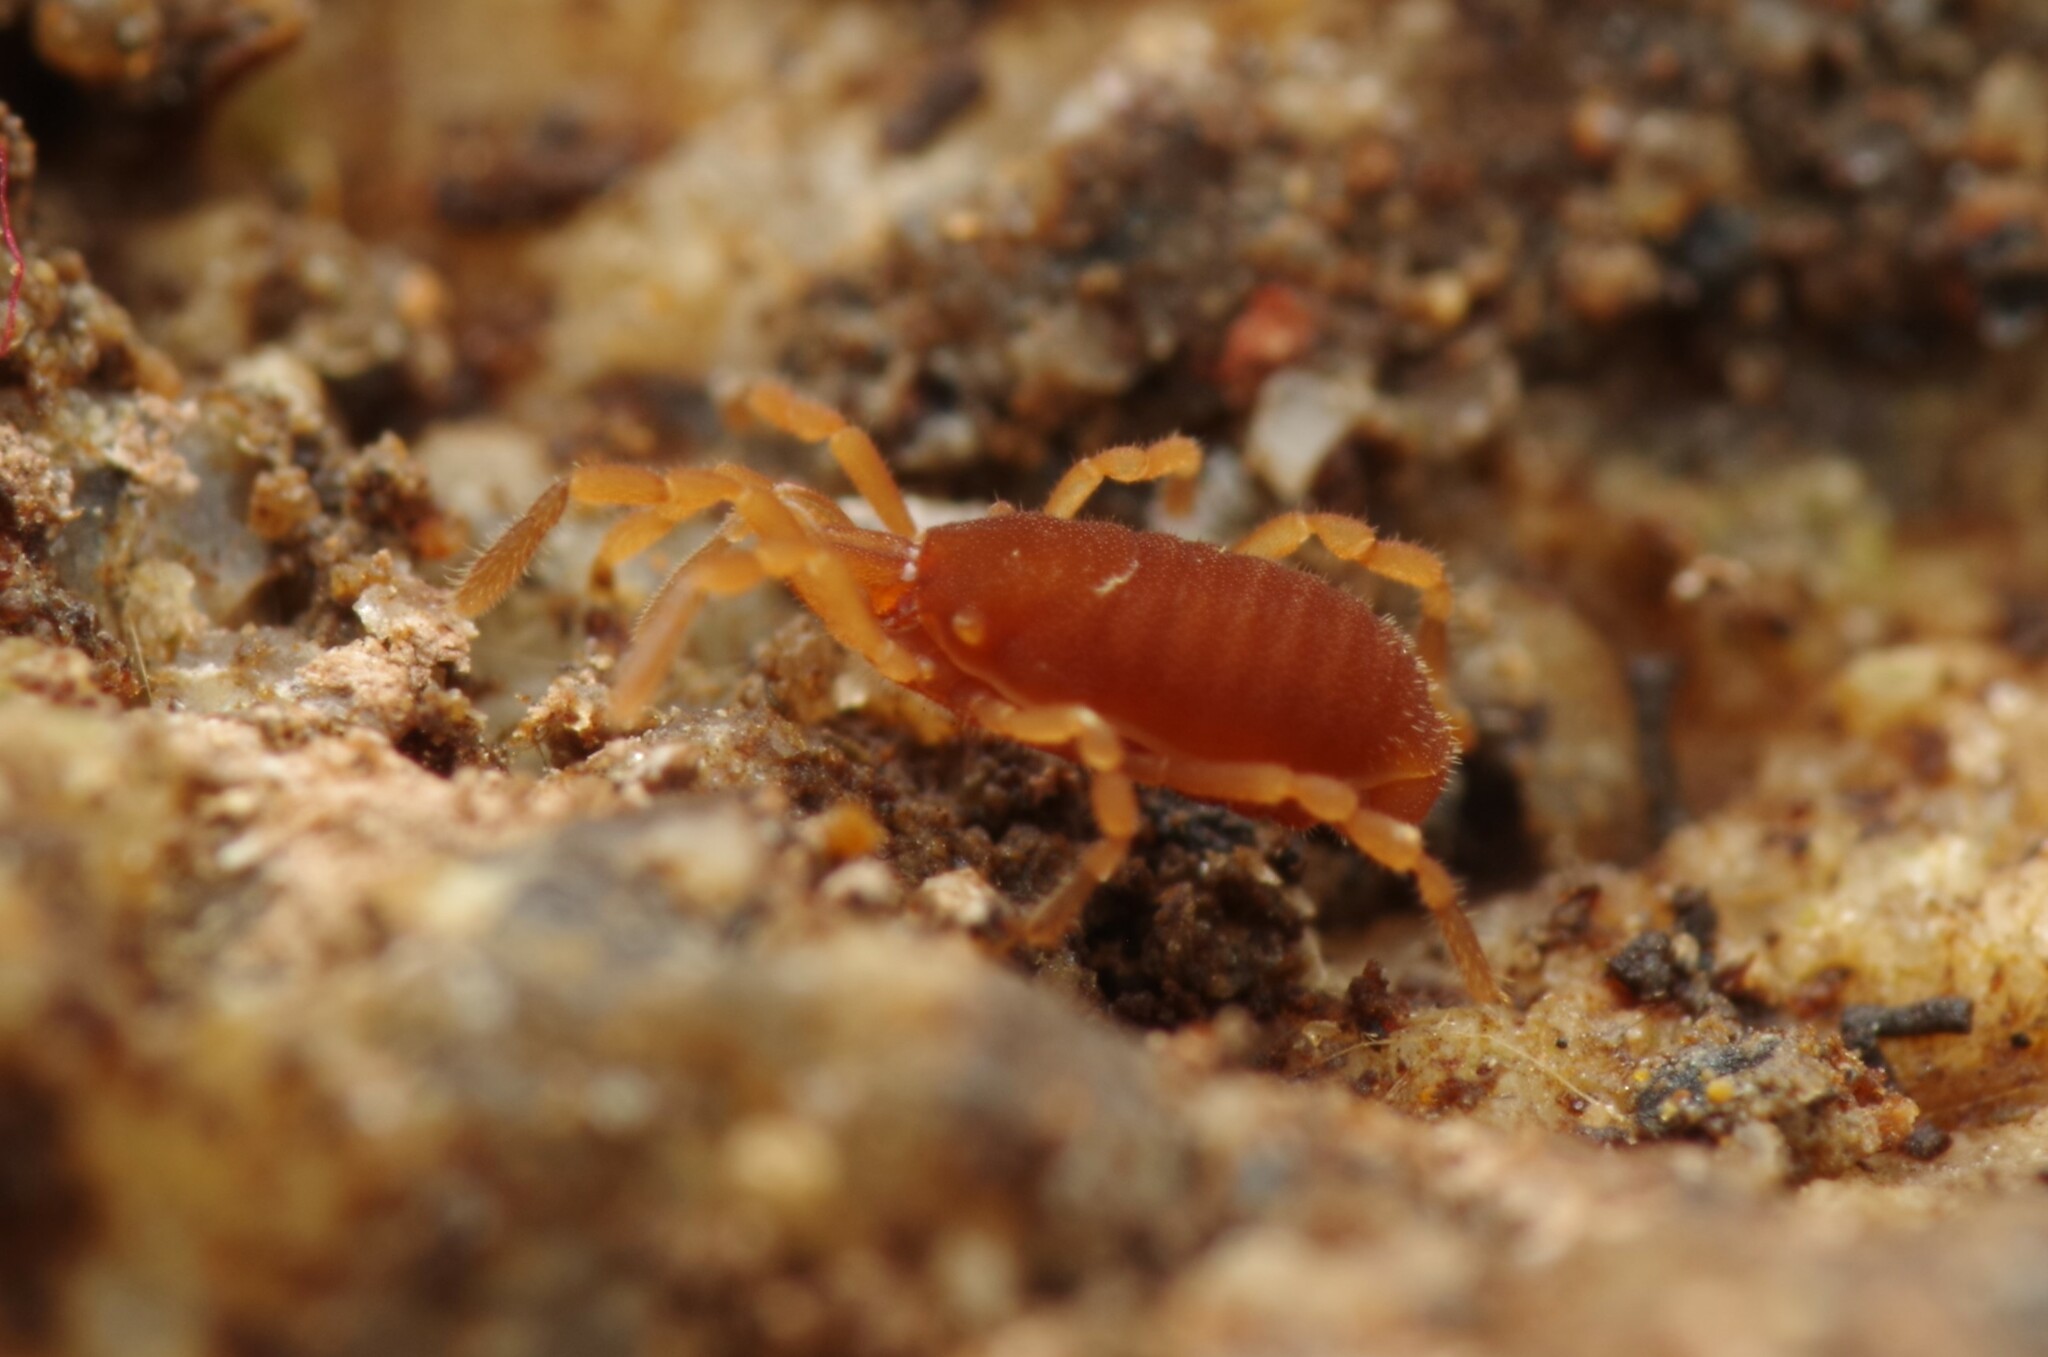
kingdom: Animalia
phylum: Arthropoda
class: Arachnida
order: Opiliones
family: Sironidae
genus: Siro
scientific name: Siro rubens
